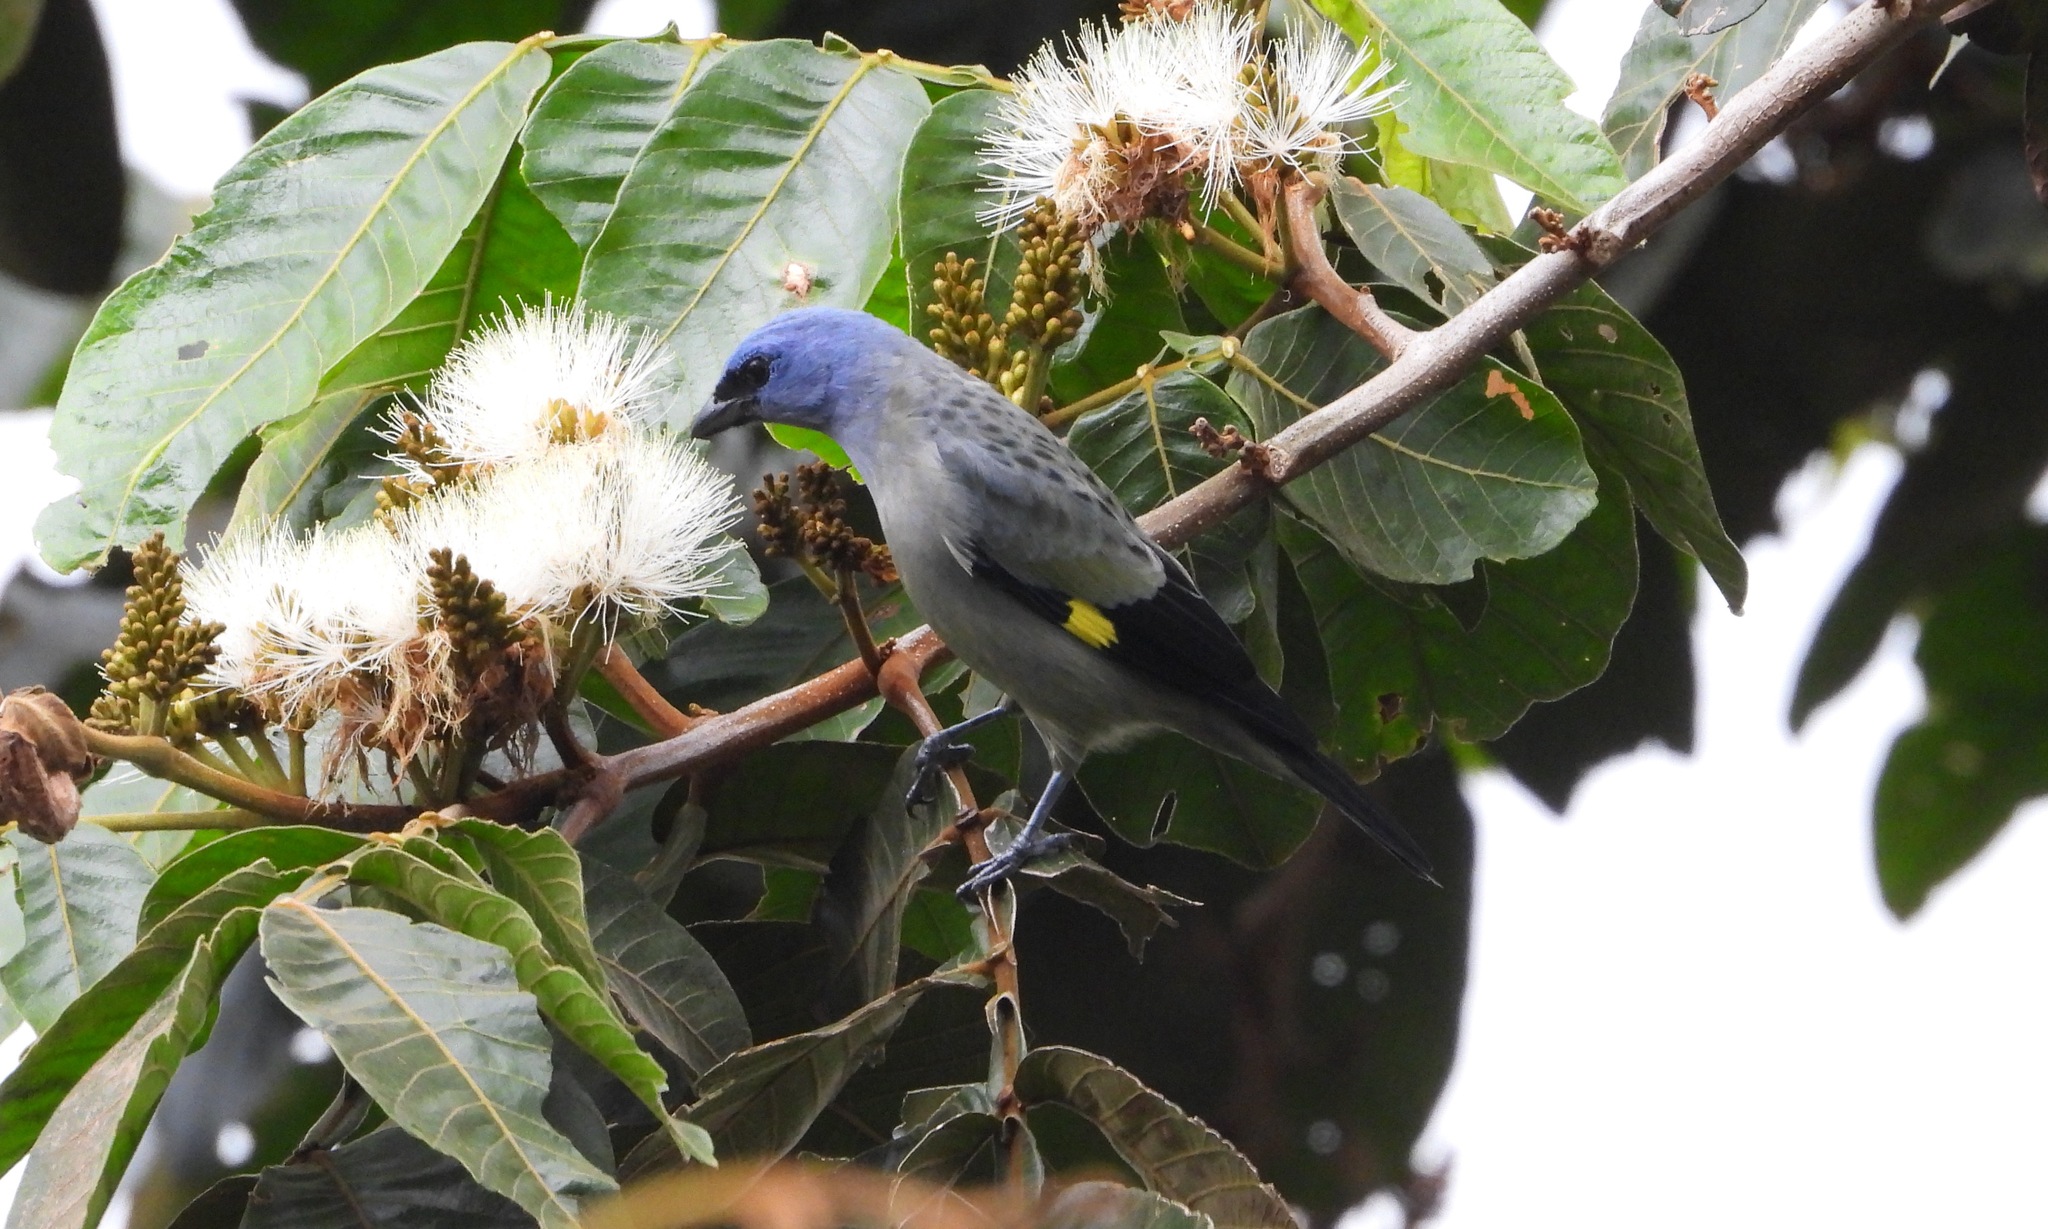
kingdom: Animalia
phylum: Chordata
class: Aves
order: Passeriformes
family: Thraupidae
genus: Thraupis
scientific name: Thraupis abbas
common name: Yellow-winged tanager
